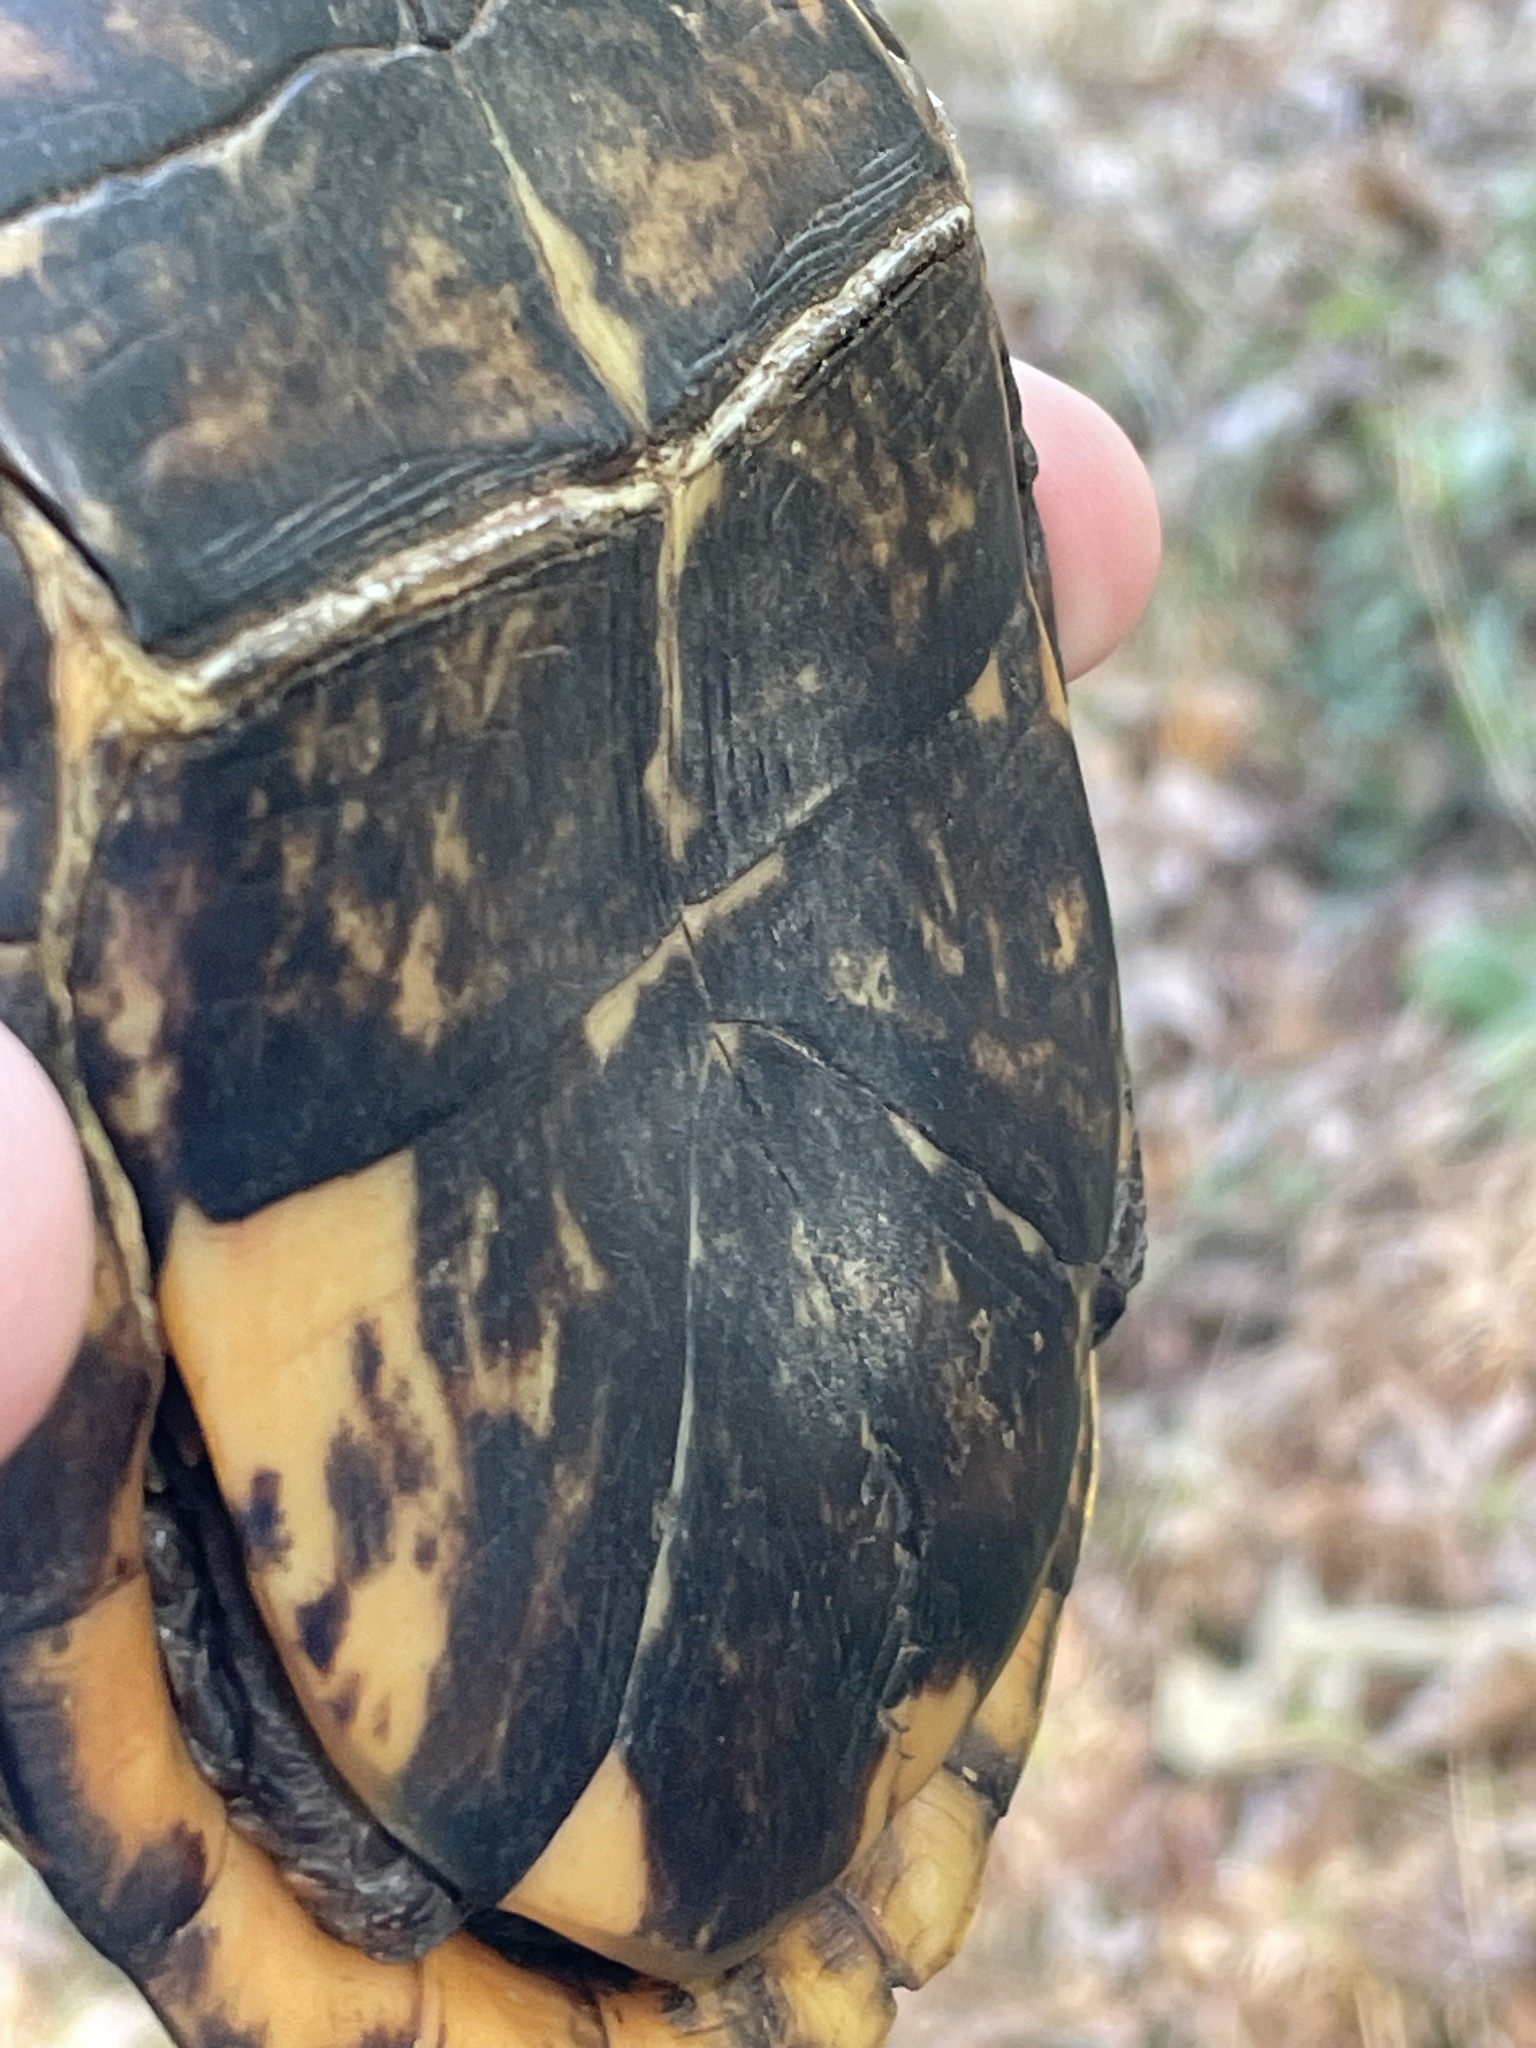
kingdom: Animalia
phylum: Chordata
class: Testudines
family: Emydidae
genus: Terrapene
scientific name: Terrapene carolina
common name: Common box turtle
